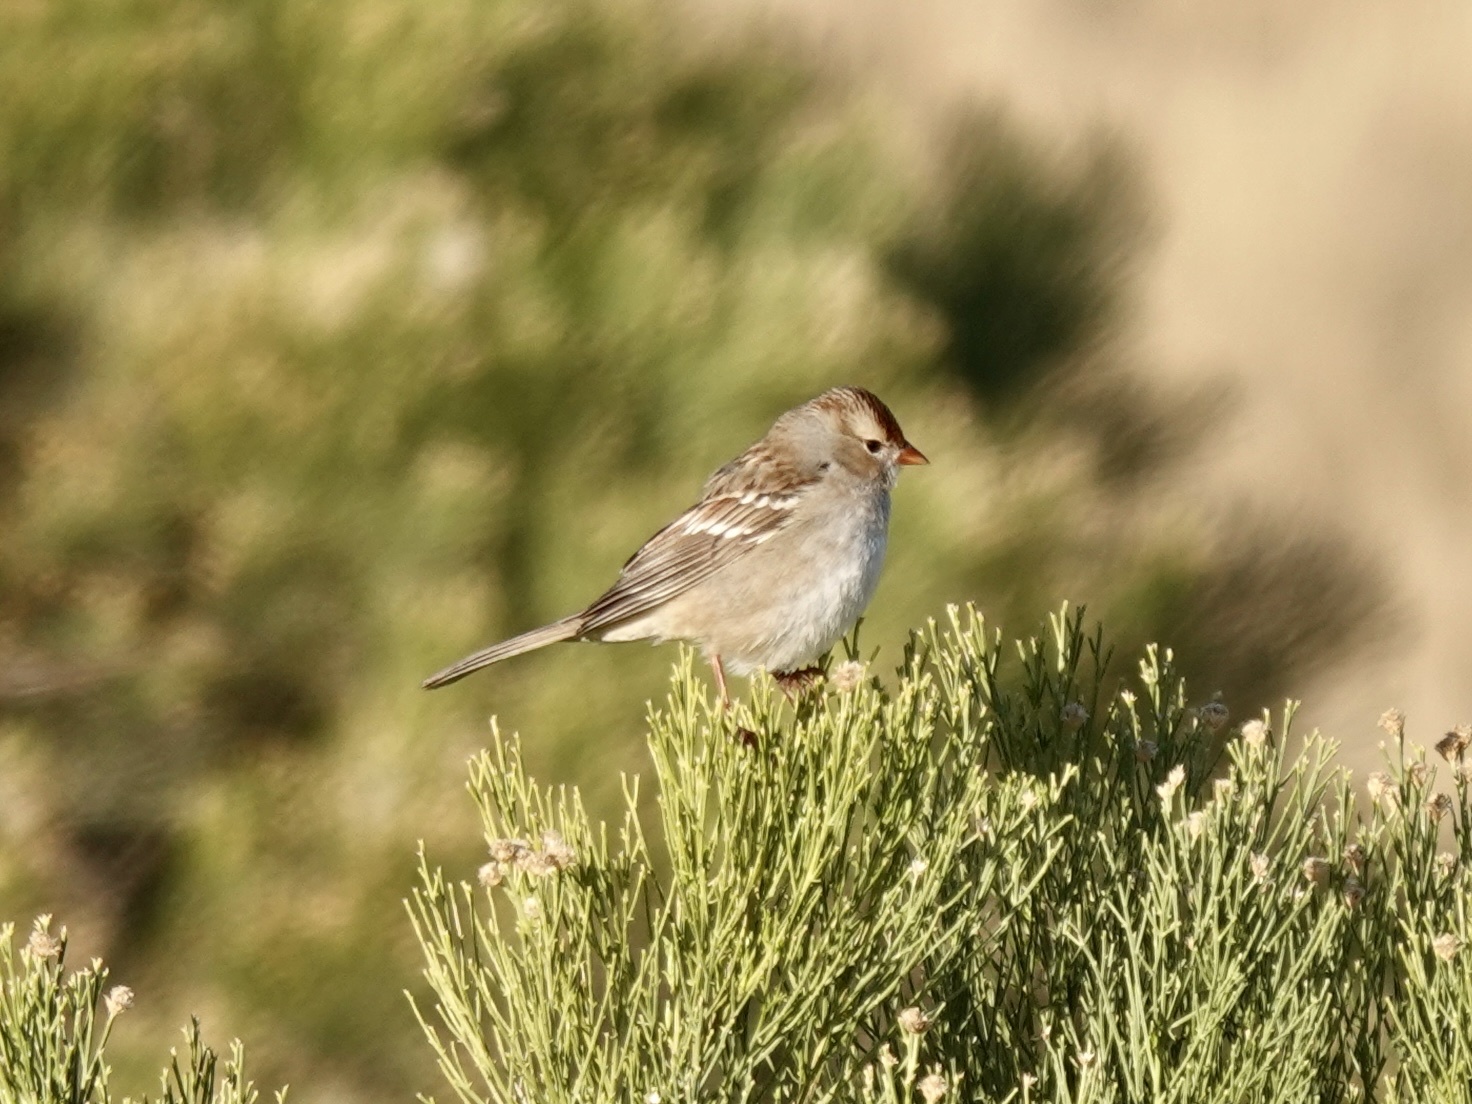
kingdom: Animalia
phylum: Chordata
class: Aves
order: Passeriformes
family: Passerellidae
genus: Zonotrichia
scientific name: Zonotrichia leucophrys
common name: White-crowned sparrow
